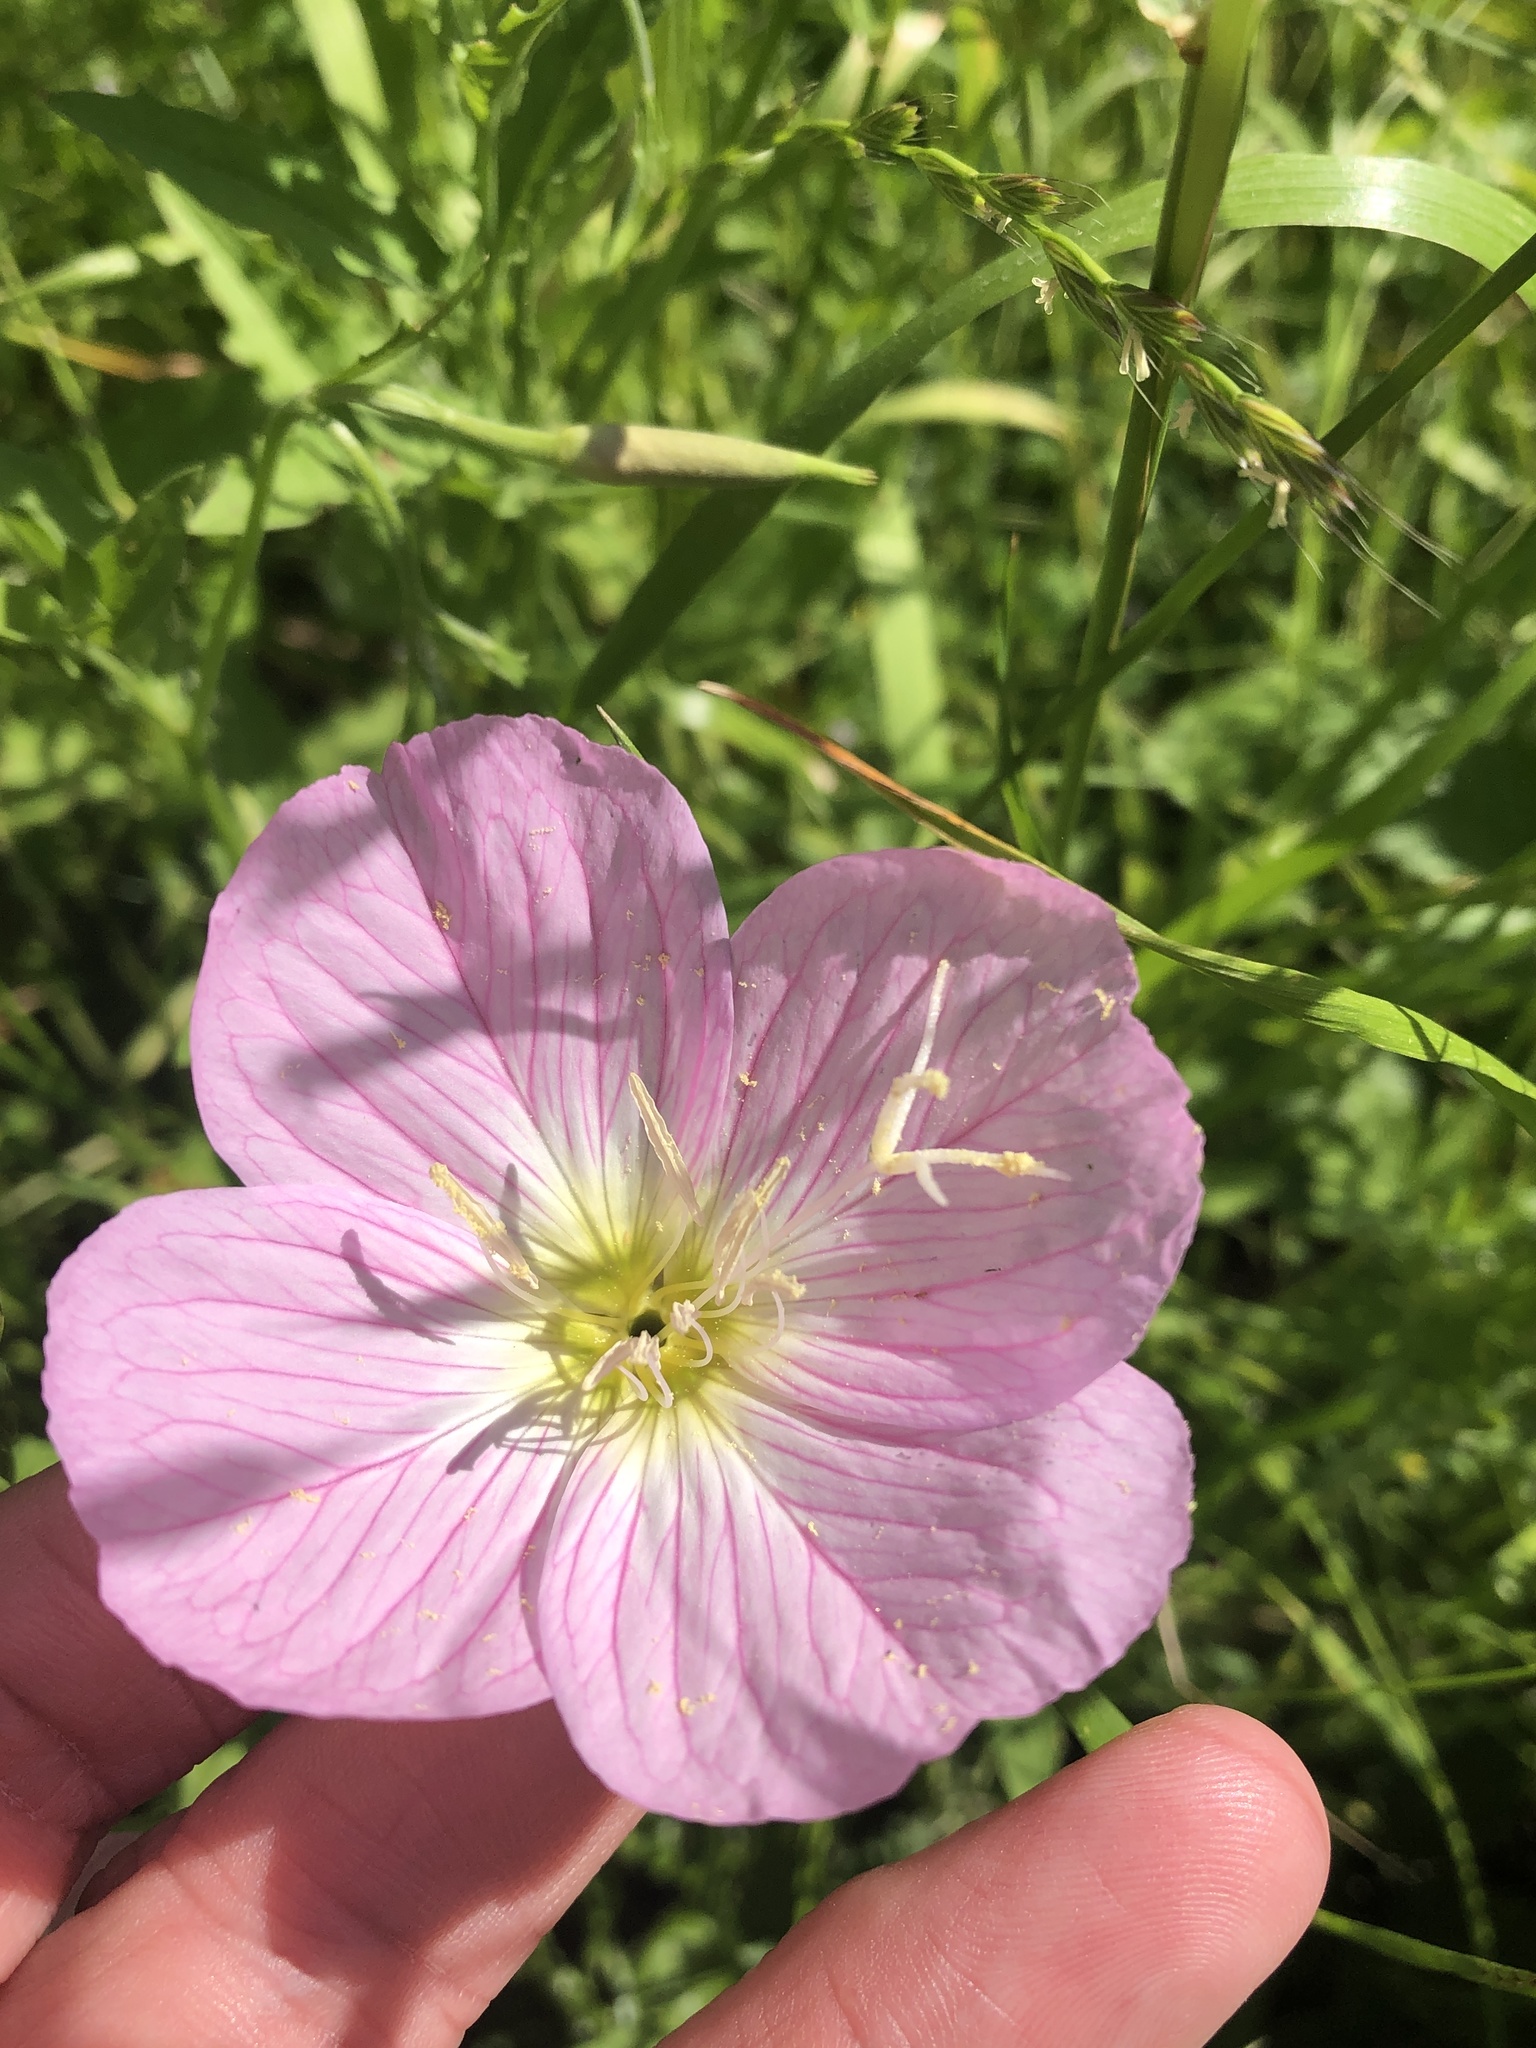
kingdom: Plantae
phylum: Tracheophyta
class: Magnoliopsida
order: Myrtales
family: Onagraceae
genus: Oenothera
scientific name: Oenothera speciosa
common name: White evening-primrose
